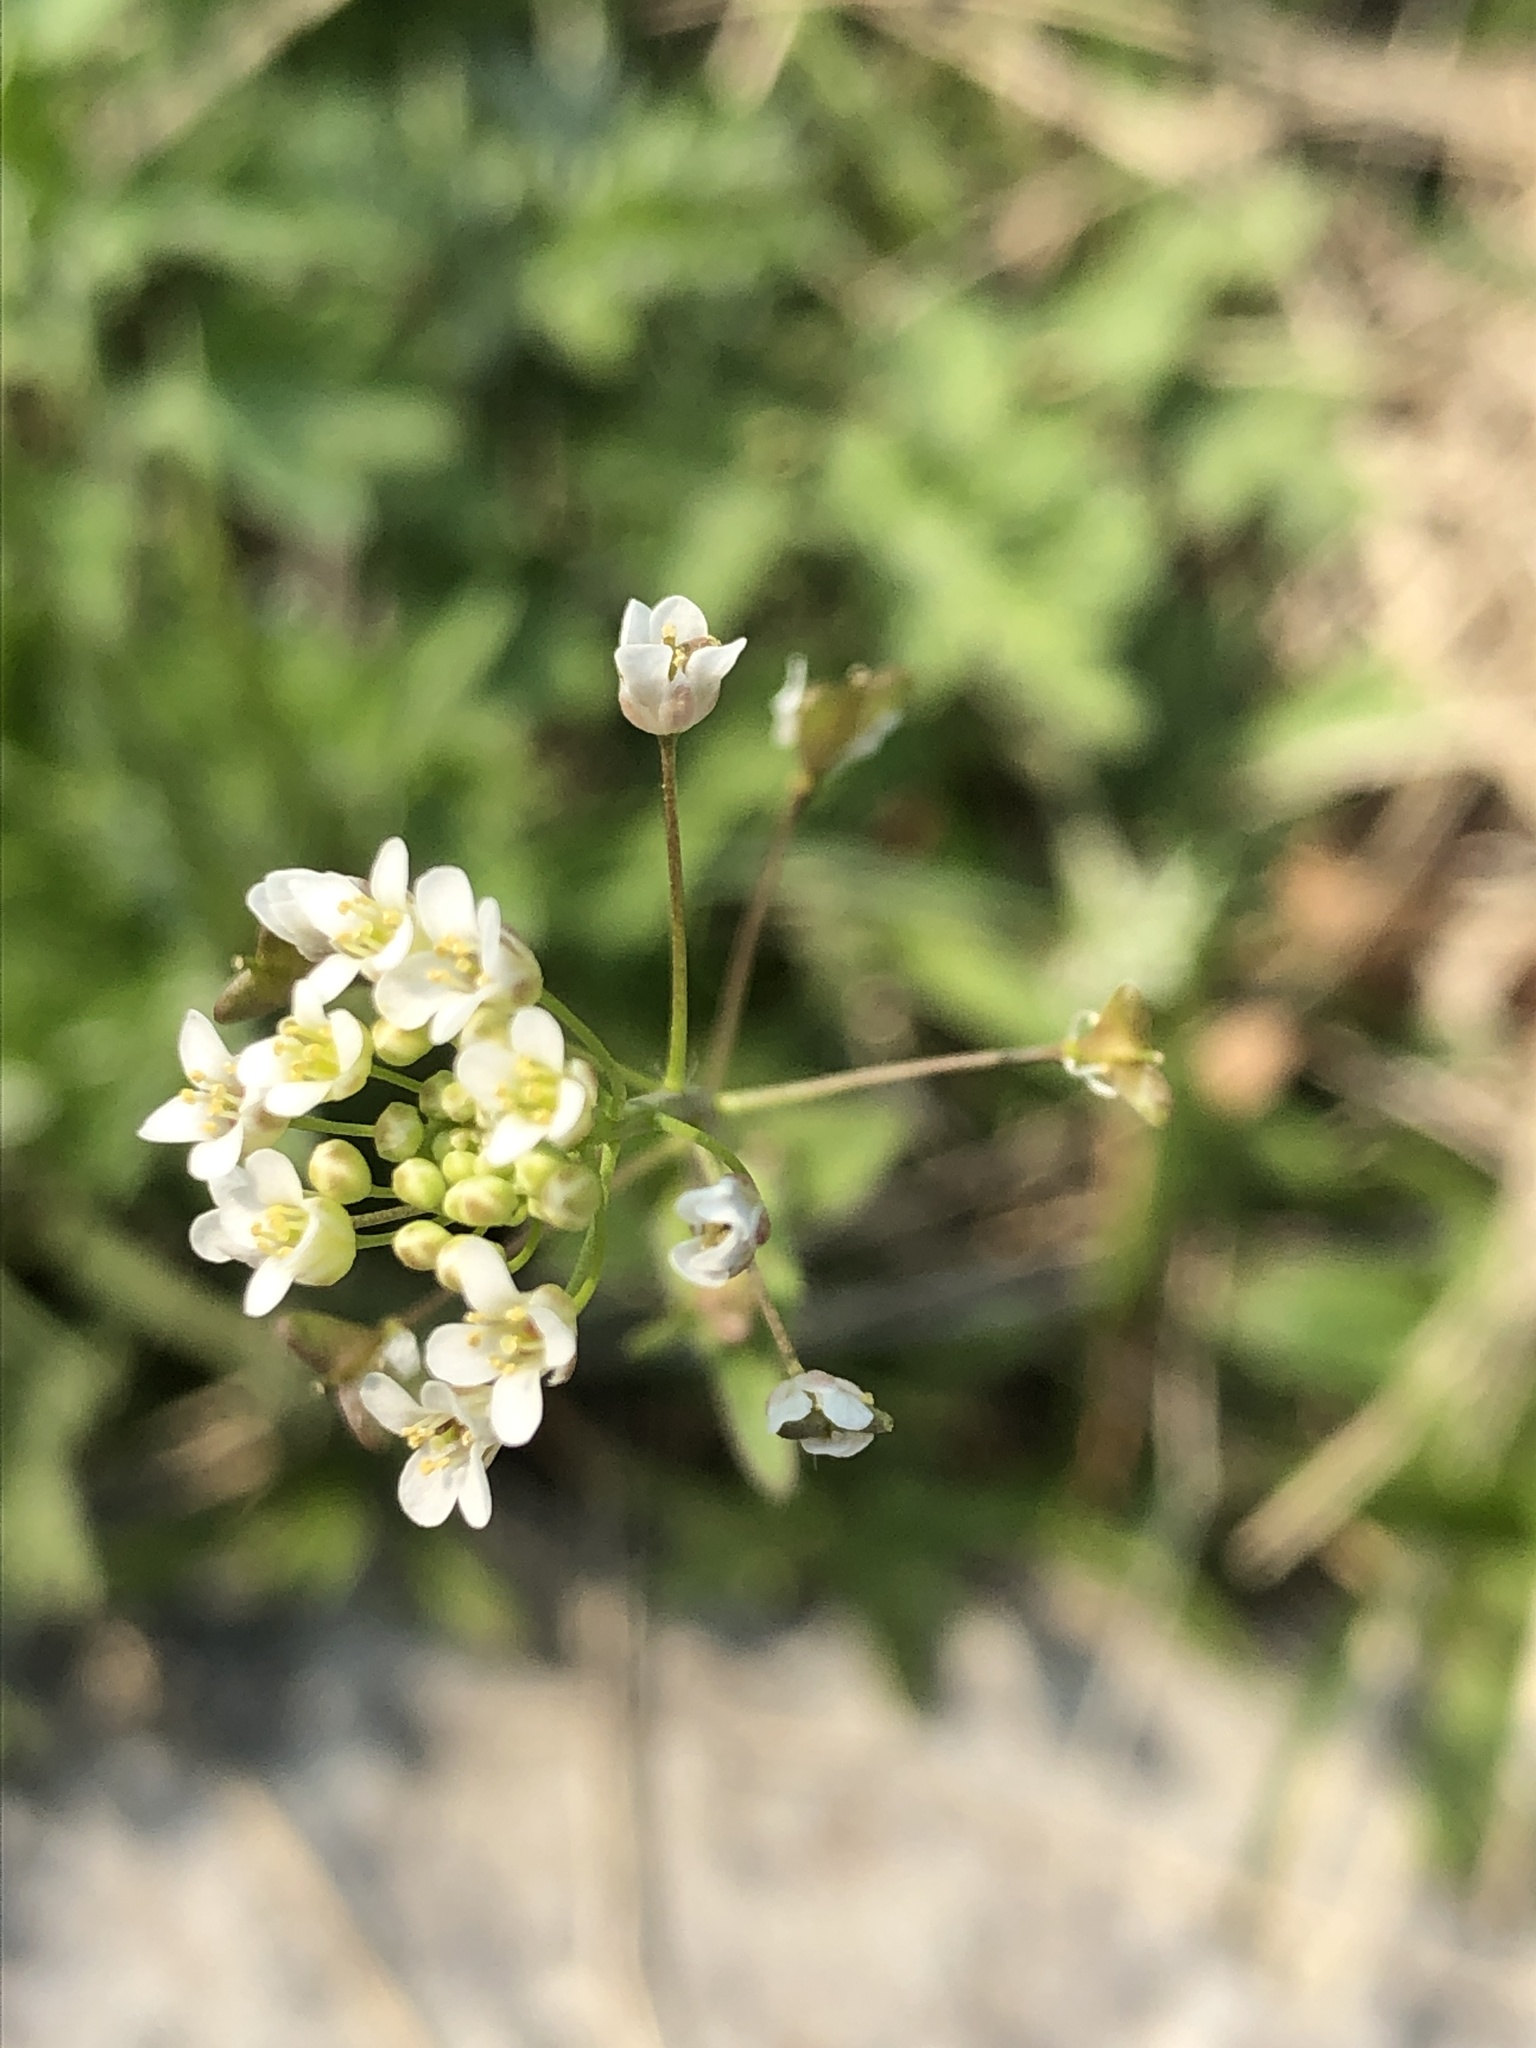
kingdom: Plantae
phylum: Tracheophyta
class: Magnoliopsida
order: Brassicales
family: Brassicaceae
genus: Capsella
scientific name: Capsella bursa-pastoris
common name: Shepherd's purse
